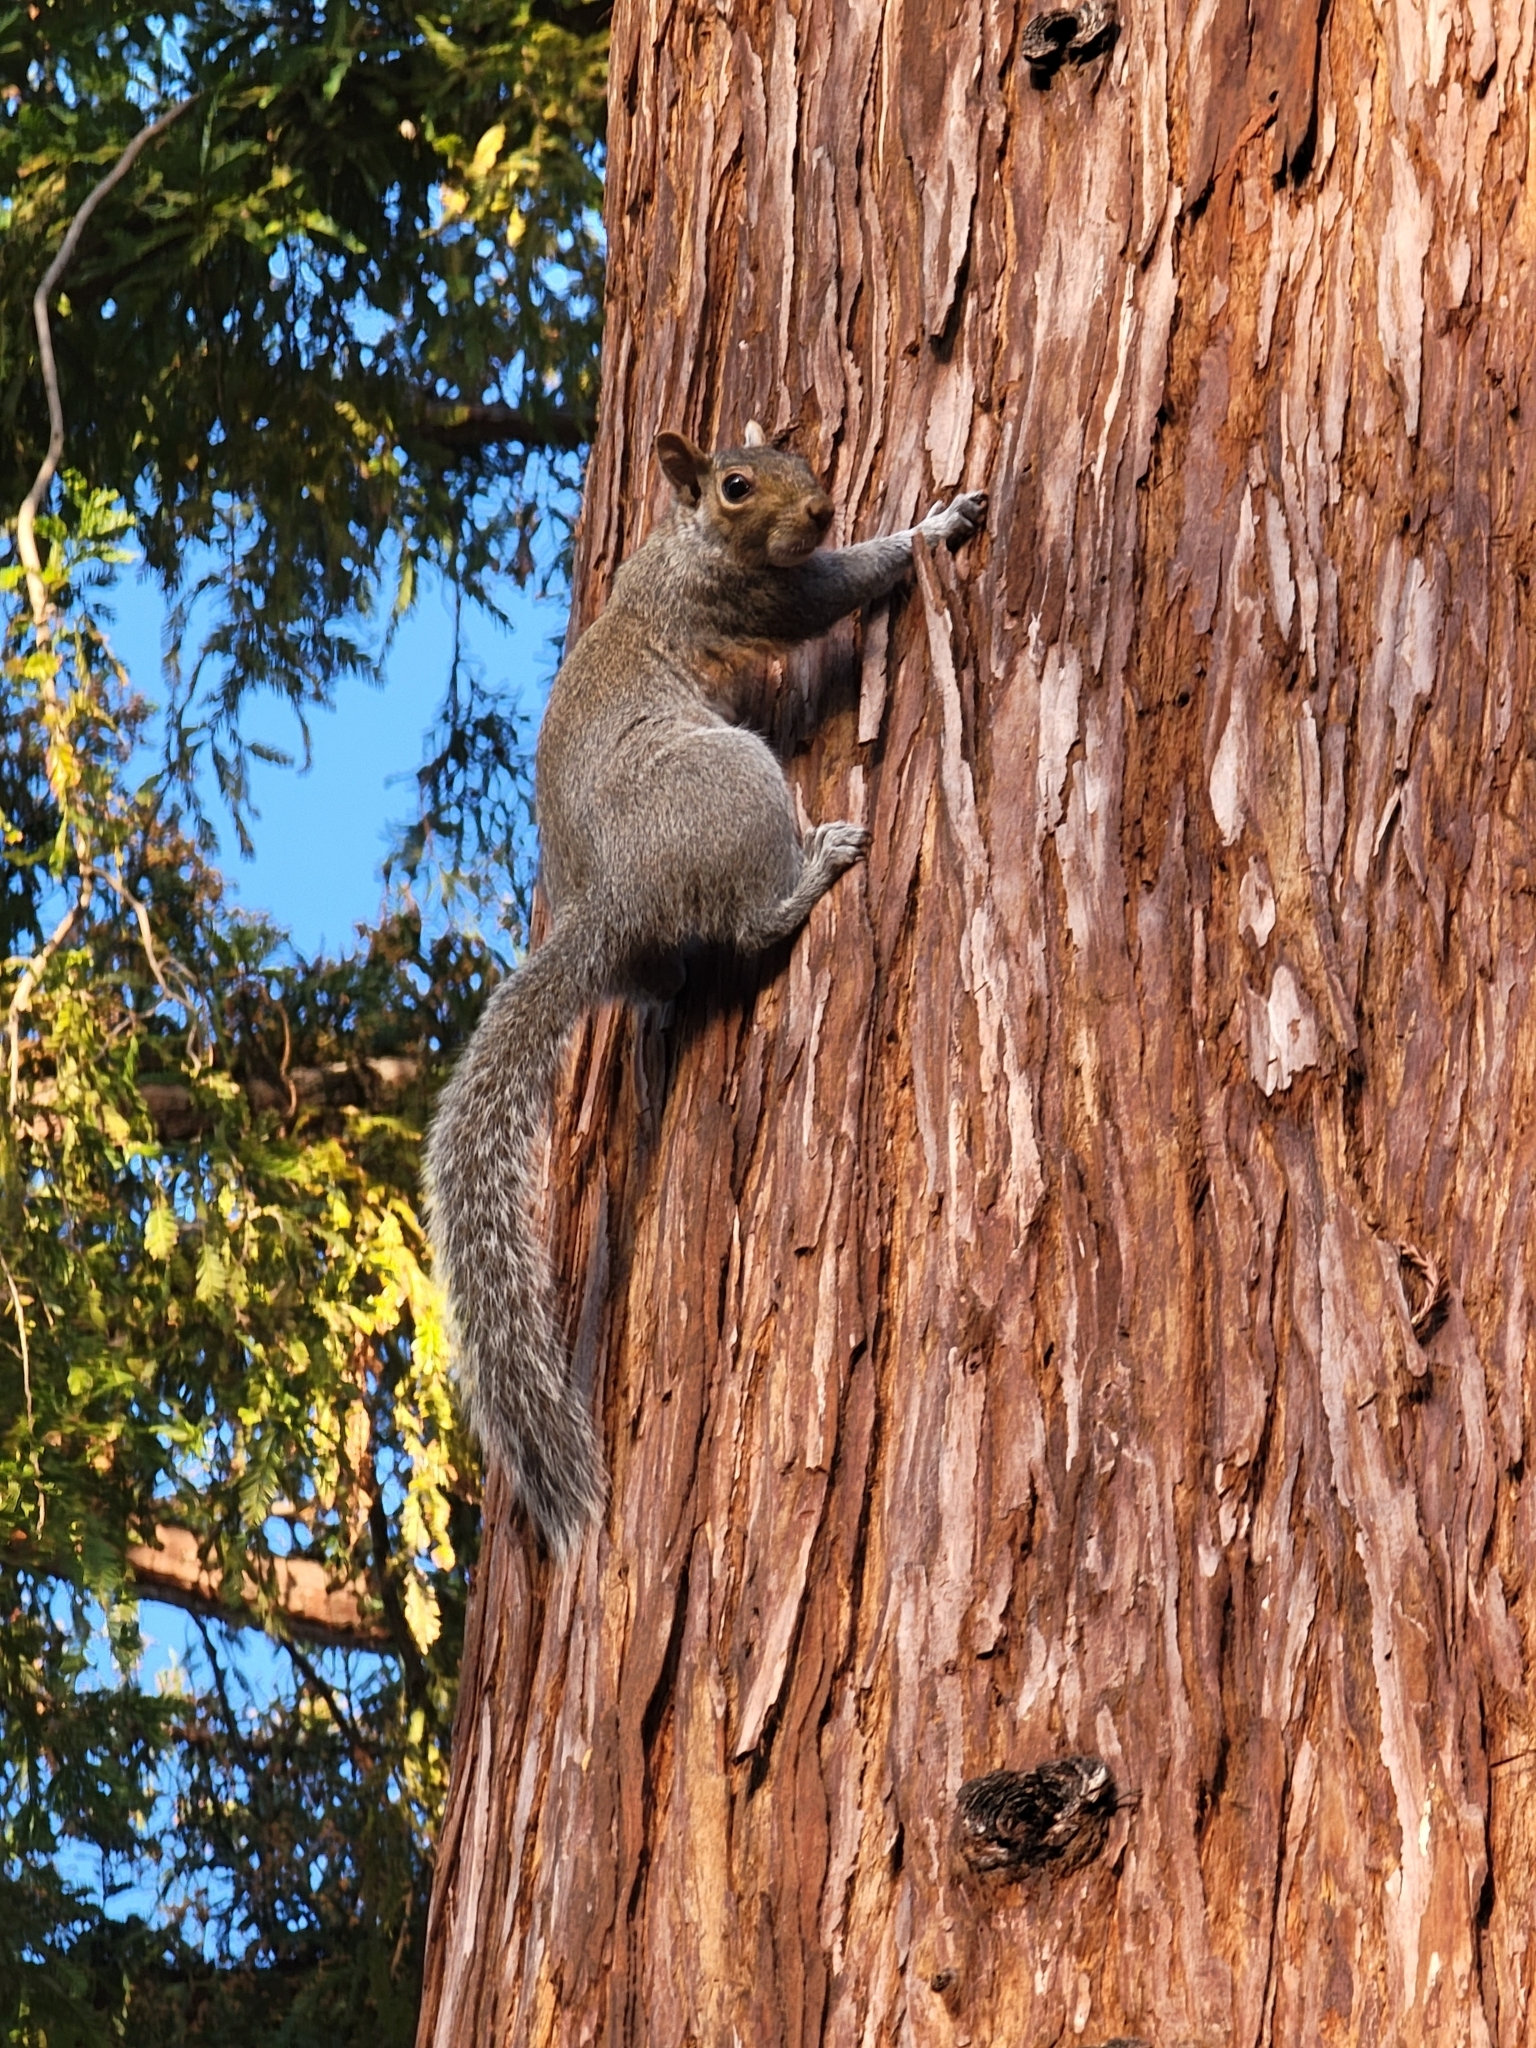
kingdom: Animalia
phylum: Chordata
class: Mammalia
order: Rodentia
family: Sciuridae
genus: Sciurus
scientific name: Sciurus carolinensis
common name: Eastern gray squirrel
